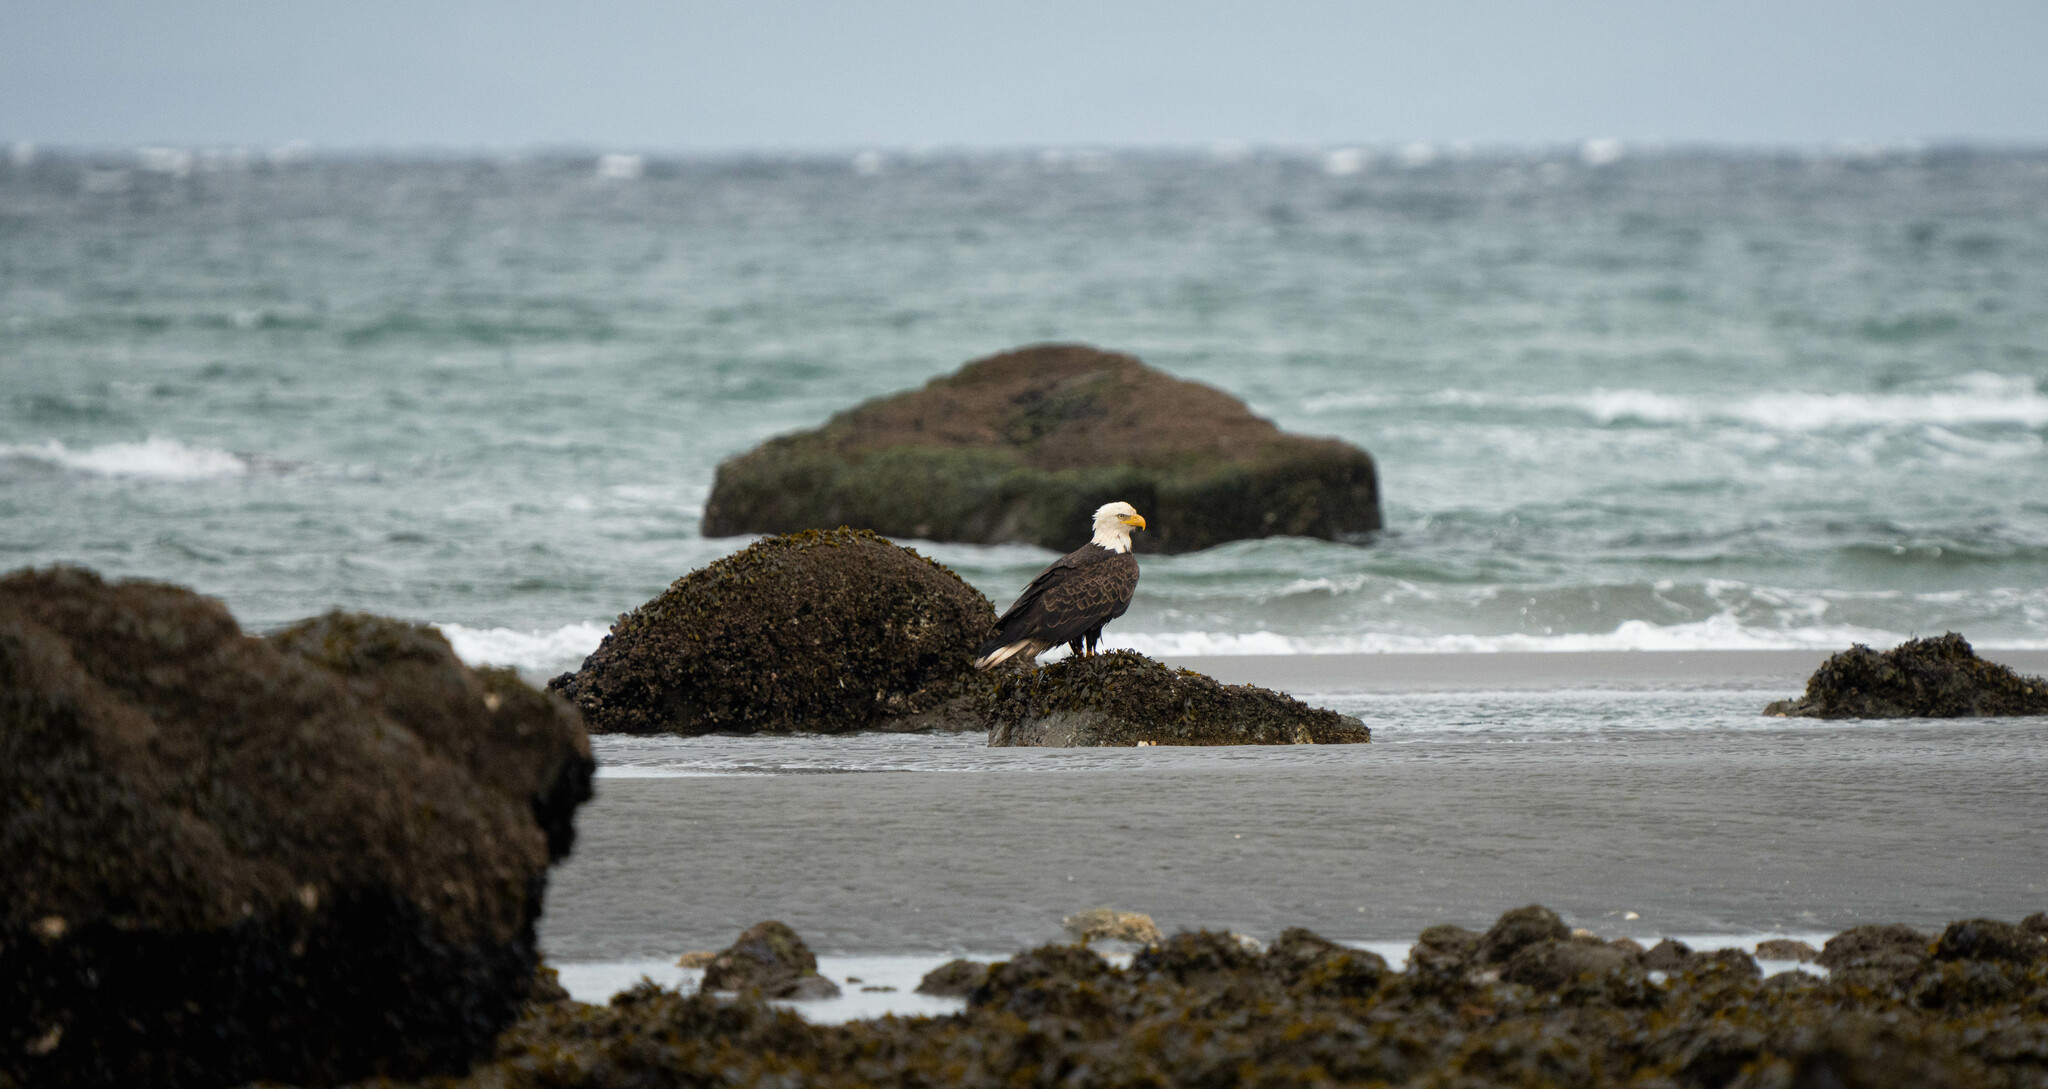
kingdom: Animalia
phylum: Chordata
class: Aves
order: Accipitriformes
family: Accipitridae
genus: Haliaeetus
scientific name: Haliaeetus leucocephalus
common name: Bald eagle
